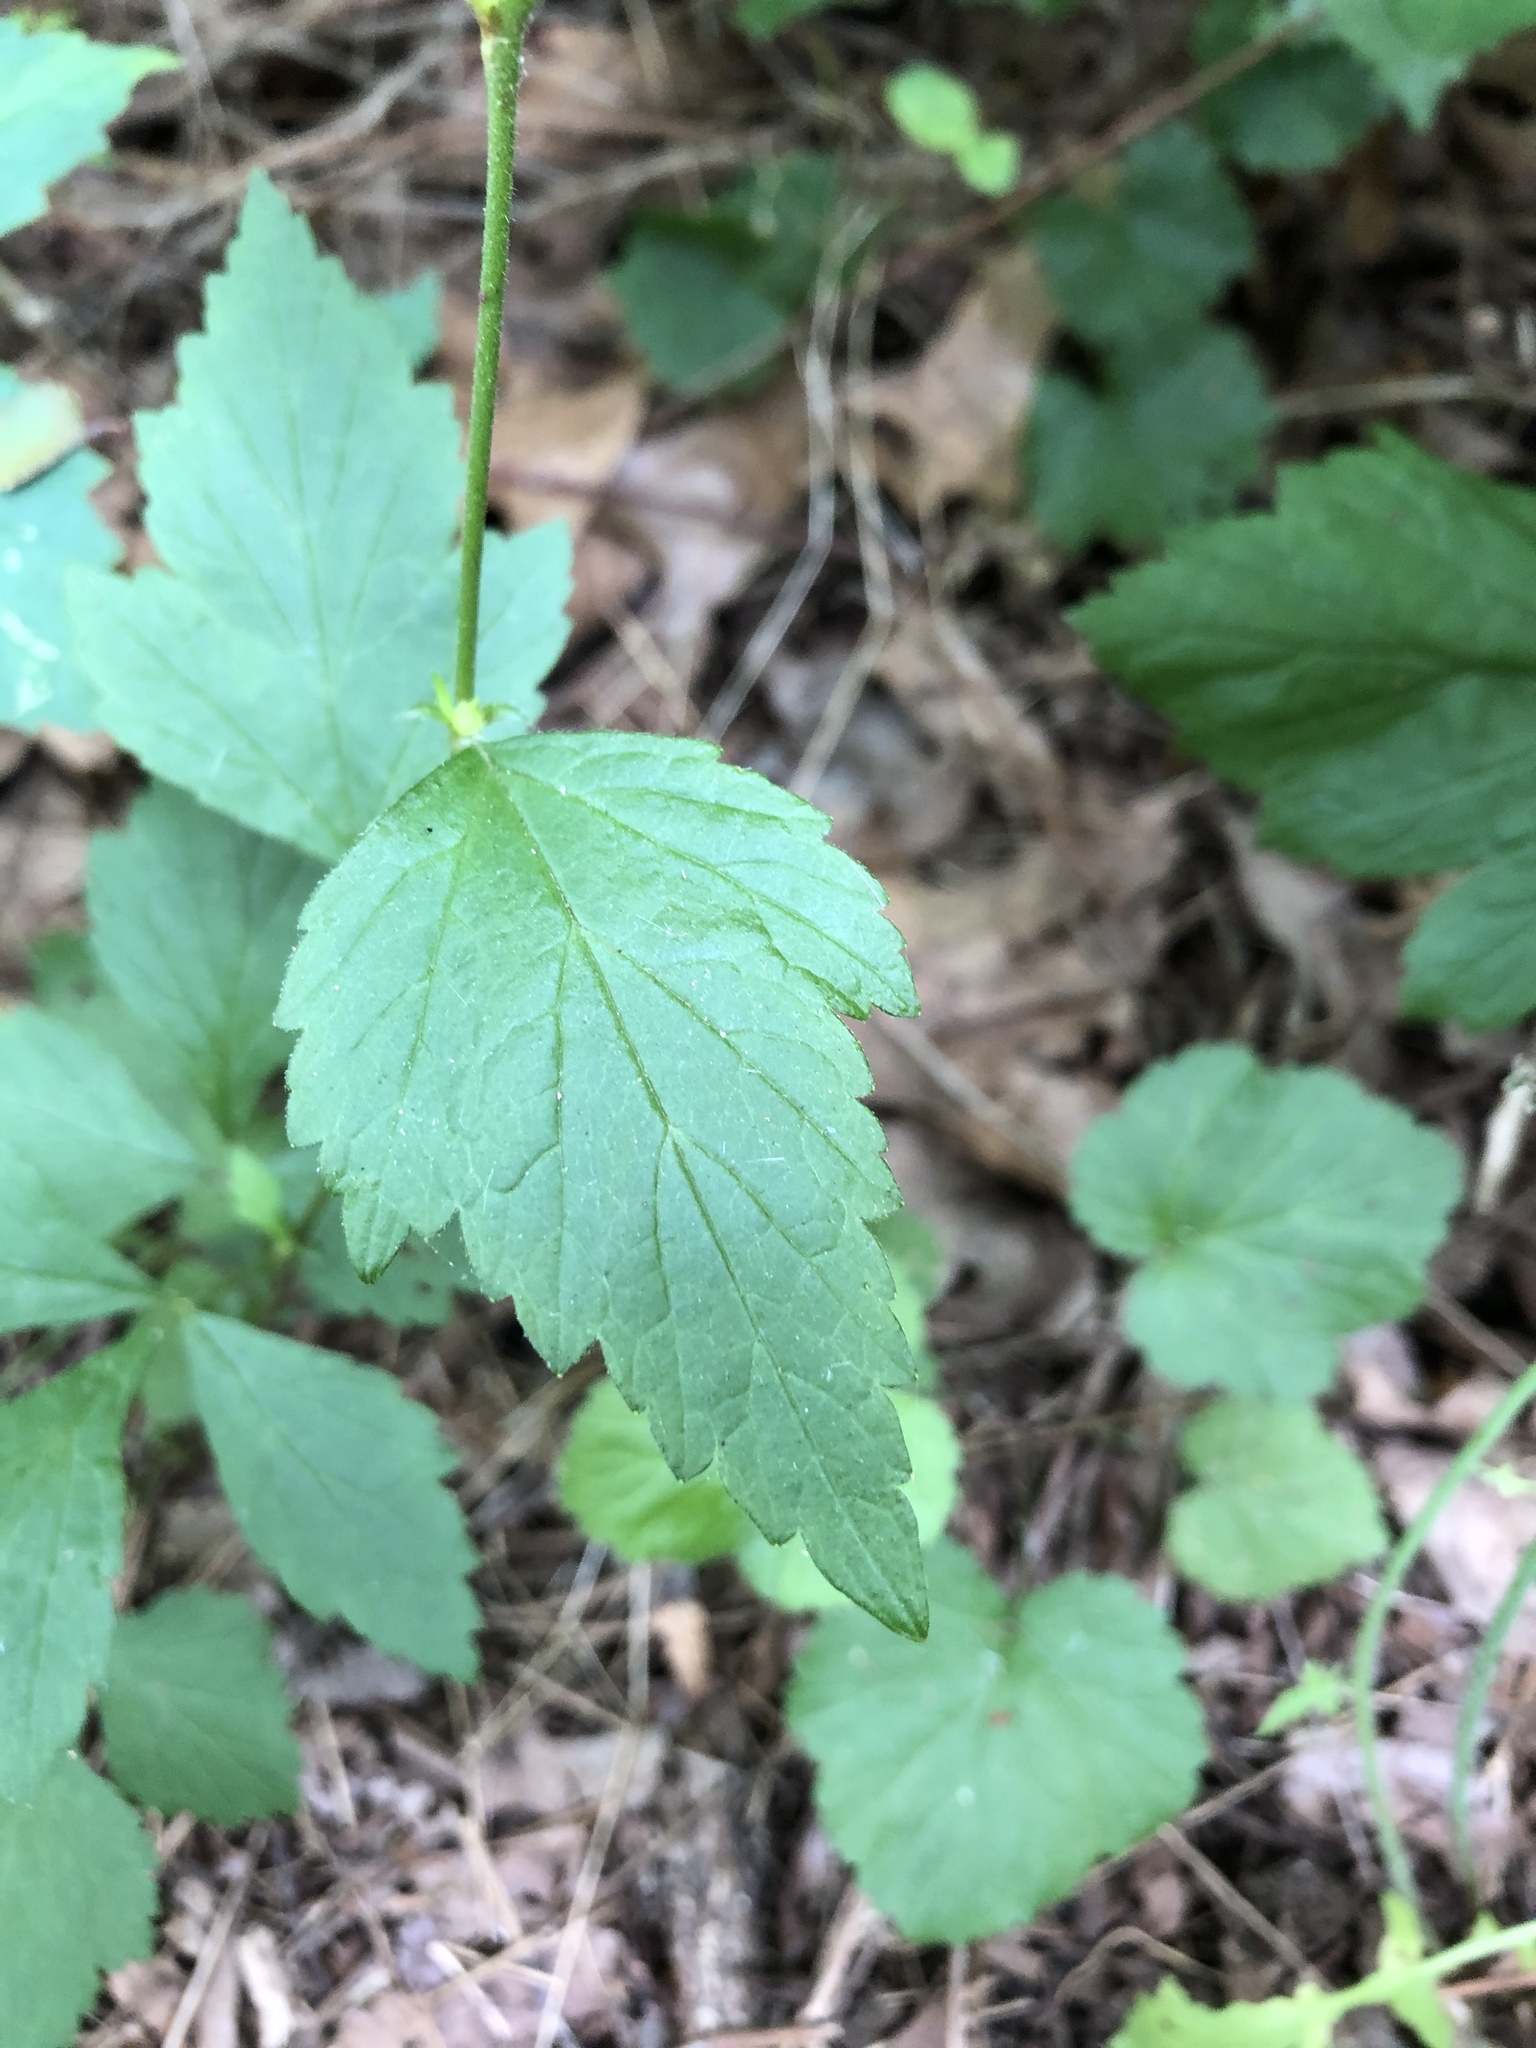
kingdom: Plantae
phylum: Tracheophyta
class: Magnoliopsida
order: Rosales
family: Rosaceae
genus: Geum
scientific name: Geum canadense
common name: White avens
